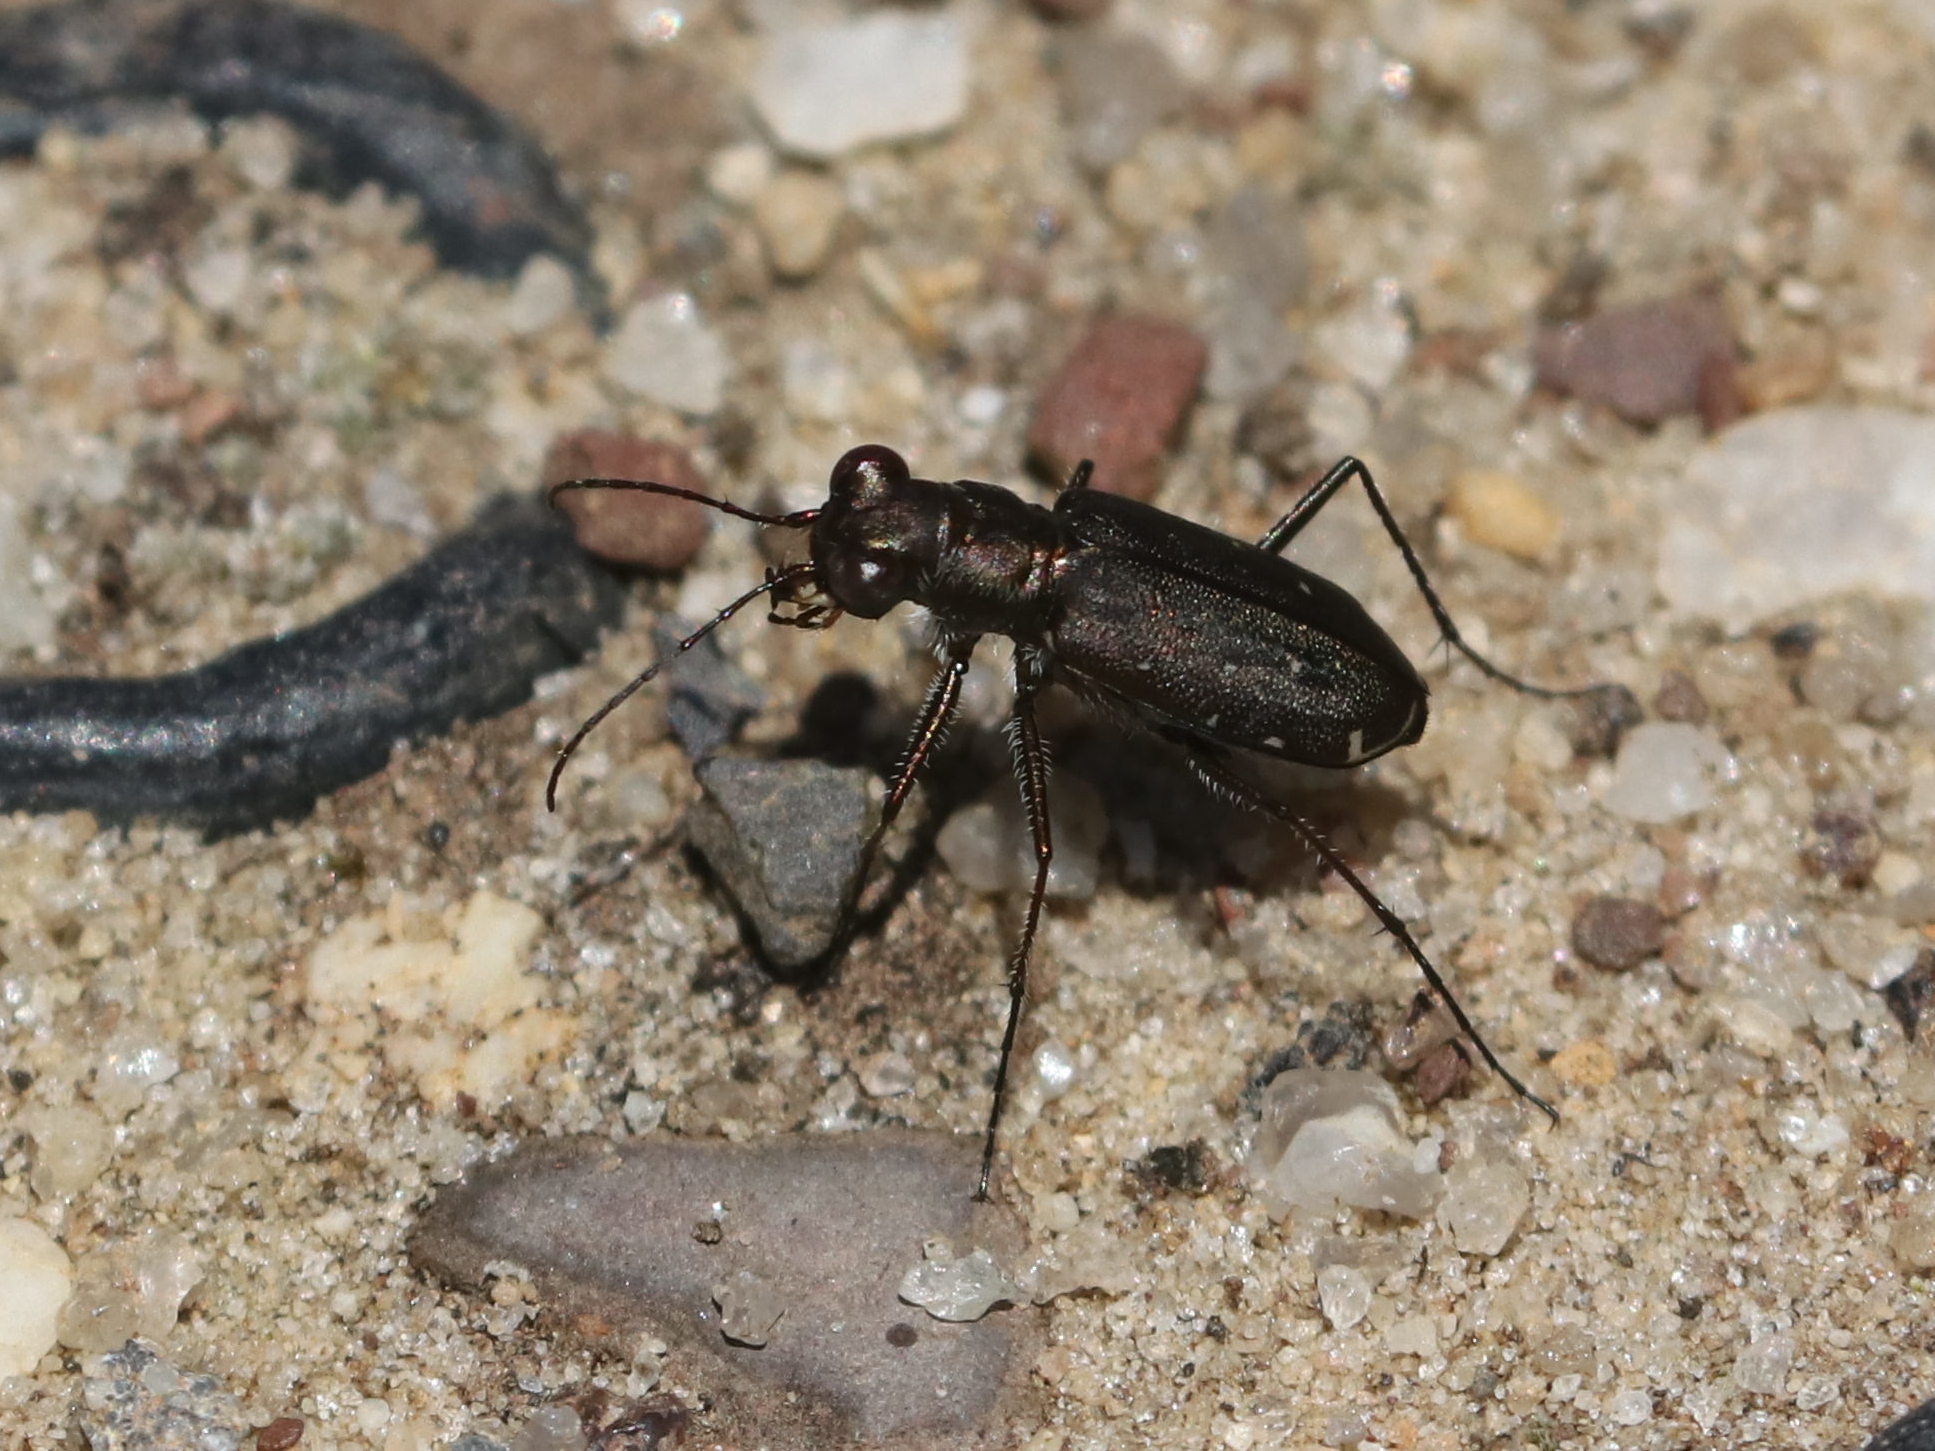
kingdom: Animalia
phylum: Arthropoda
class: Insecta
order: Coleoptera
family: Carabidae
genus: Cicindela
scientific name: Cicindela punctulata
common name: Punctured tiger beetle
